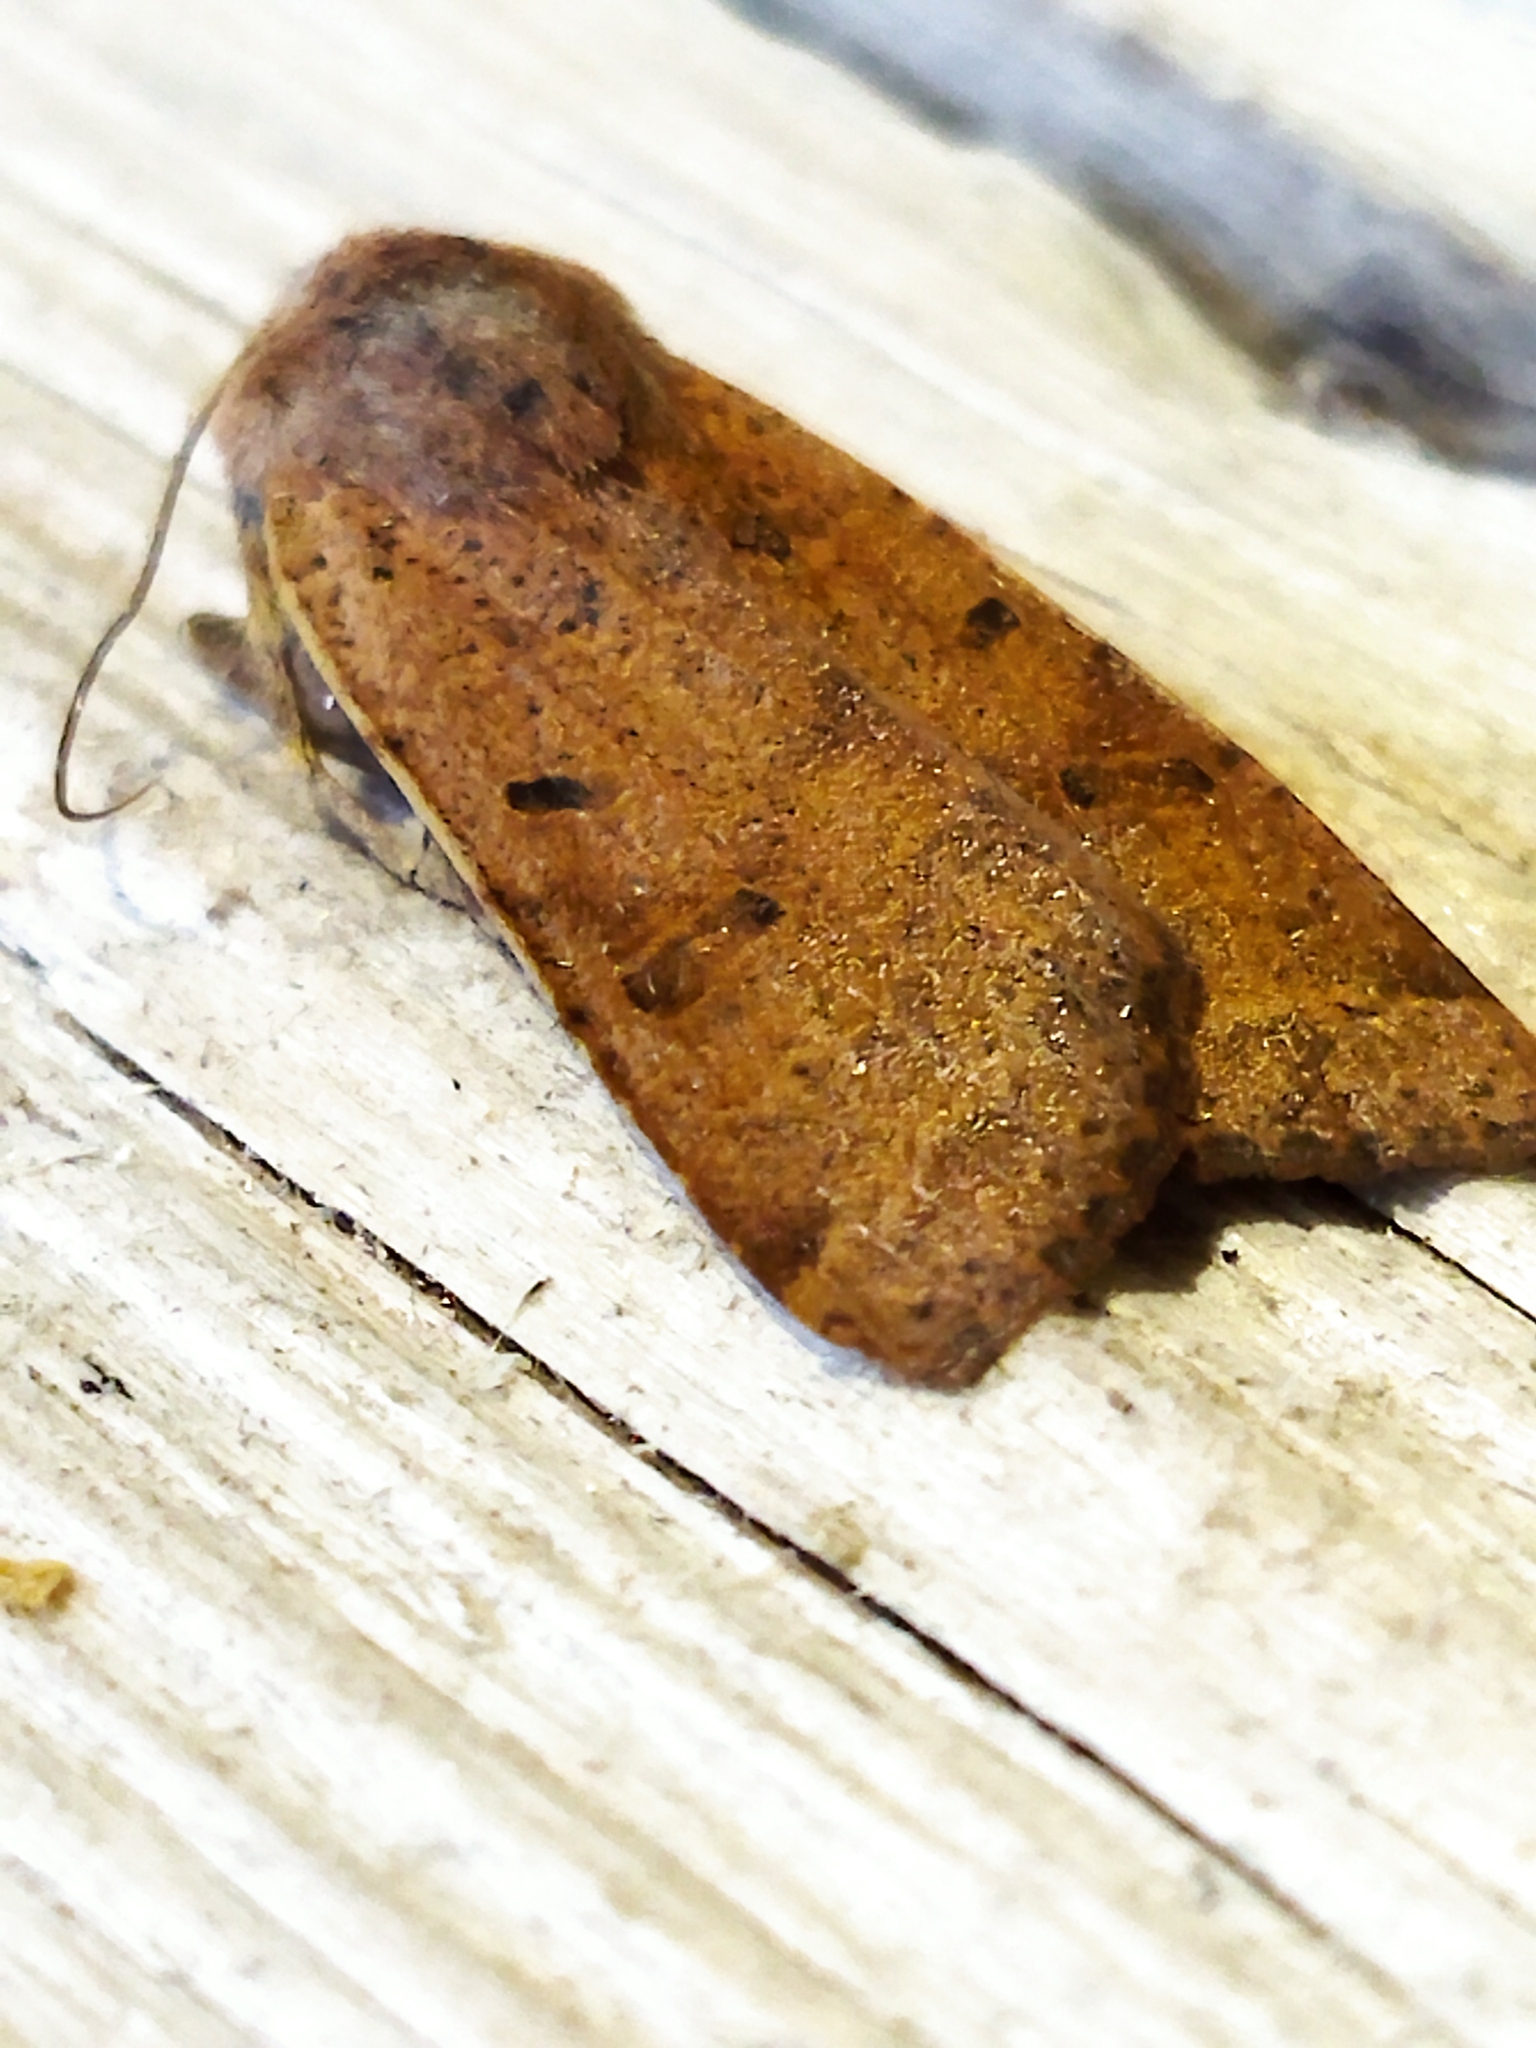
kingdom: Animalia
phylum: Arthropoda
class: Insecta
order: Lepidoptera
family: Noctuidae
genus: Agrochola
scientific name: Agrochola lychnidis
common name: Beaded chestnut
